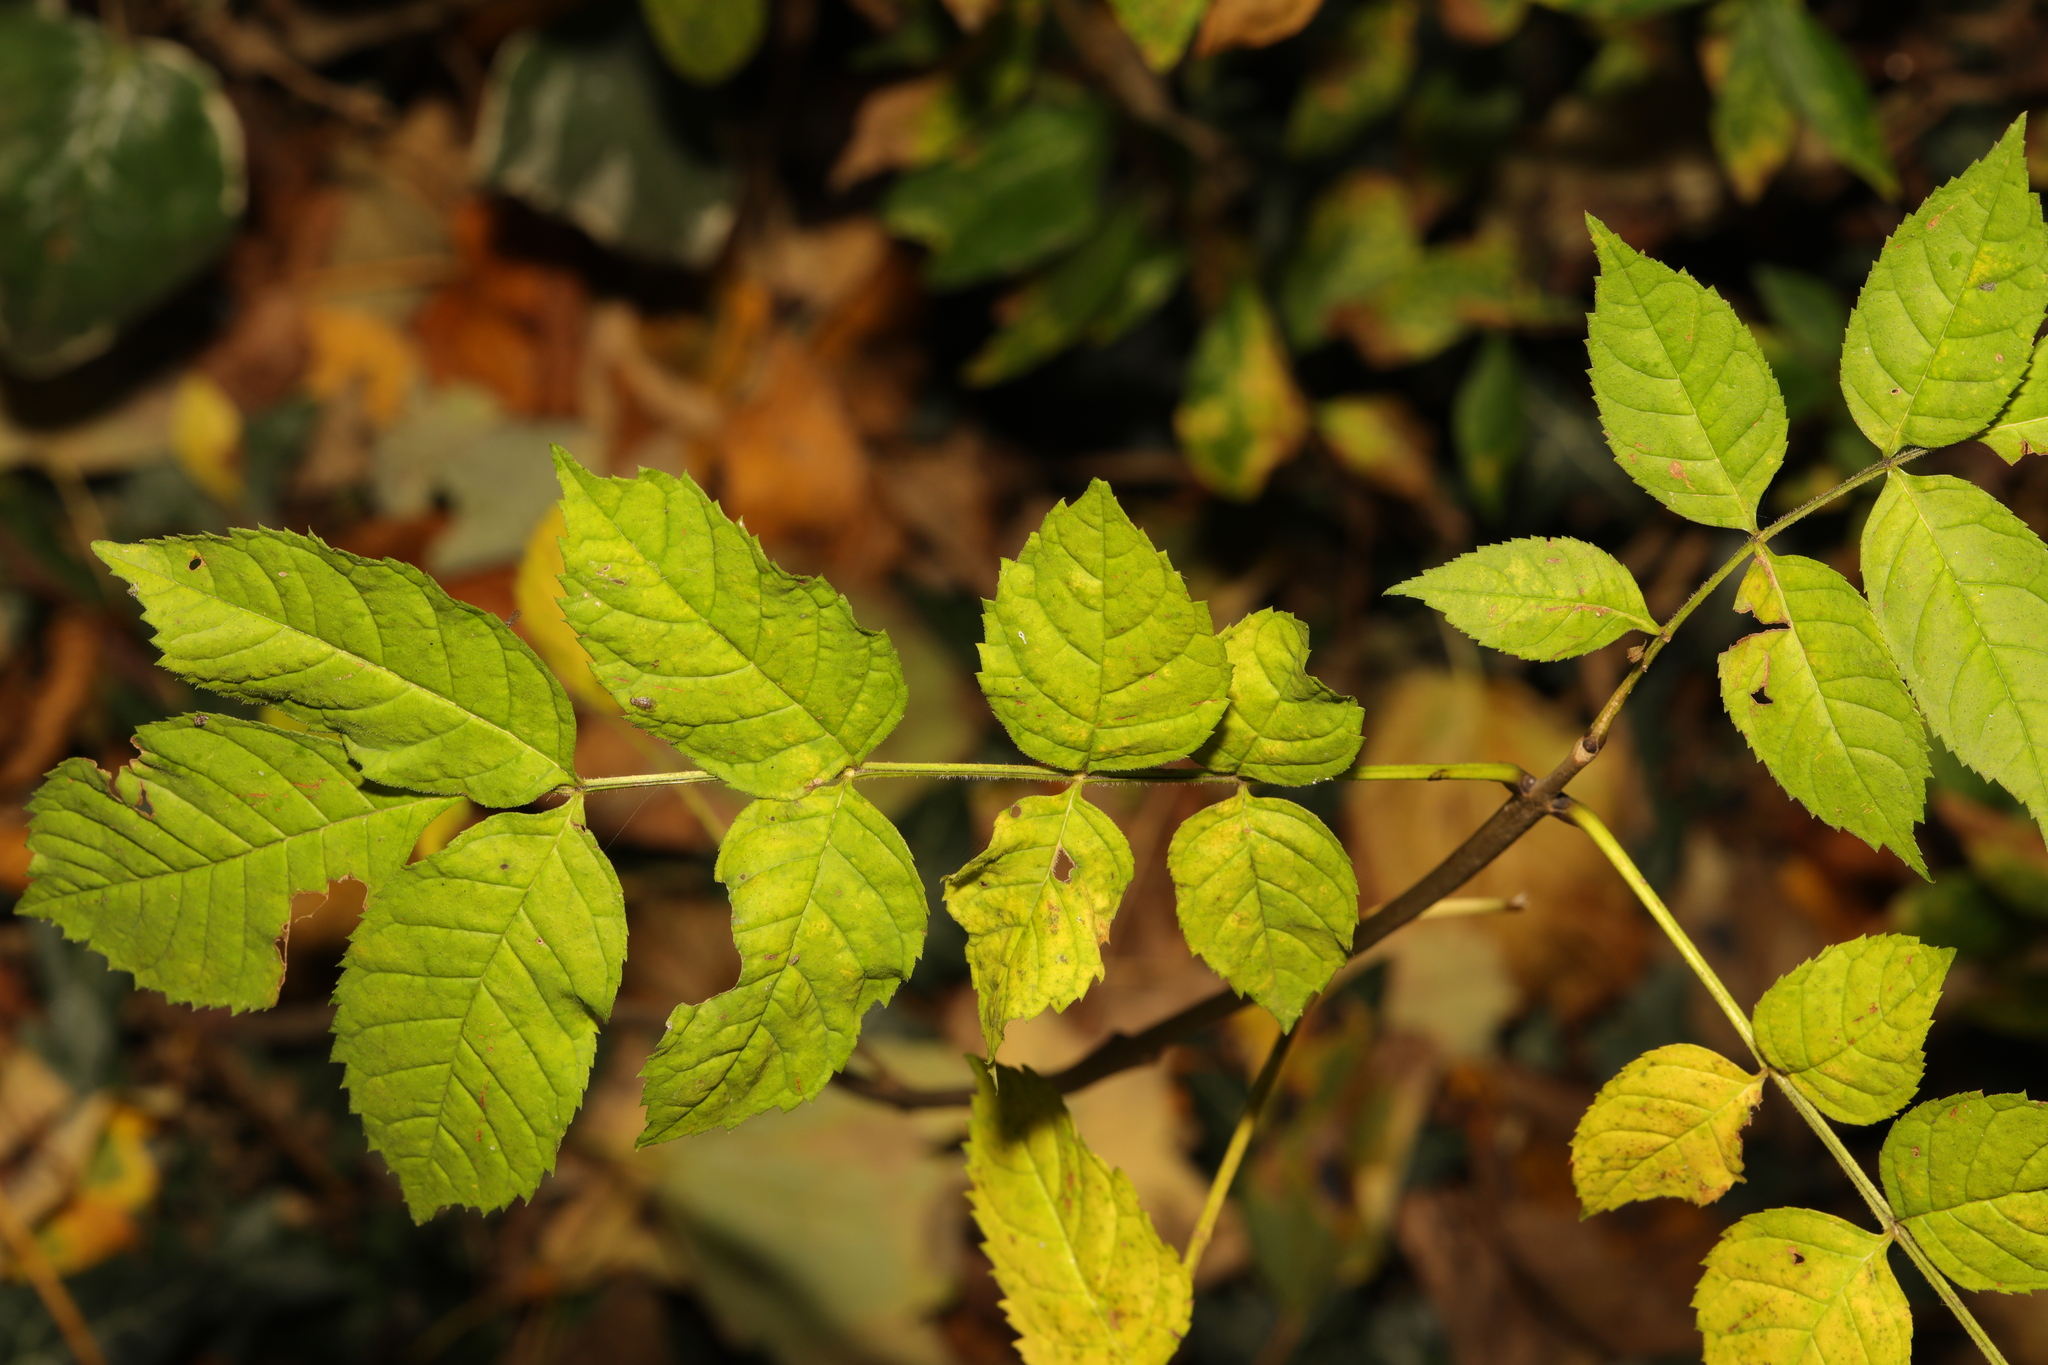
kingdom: Plantae
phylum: Tracheophyta
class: Magnoliopsida
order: Lamiales
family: Oleaceae
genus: Fraxinus
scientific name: Fraxinus excelsior
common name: European ash
